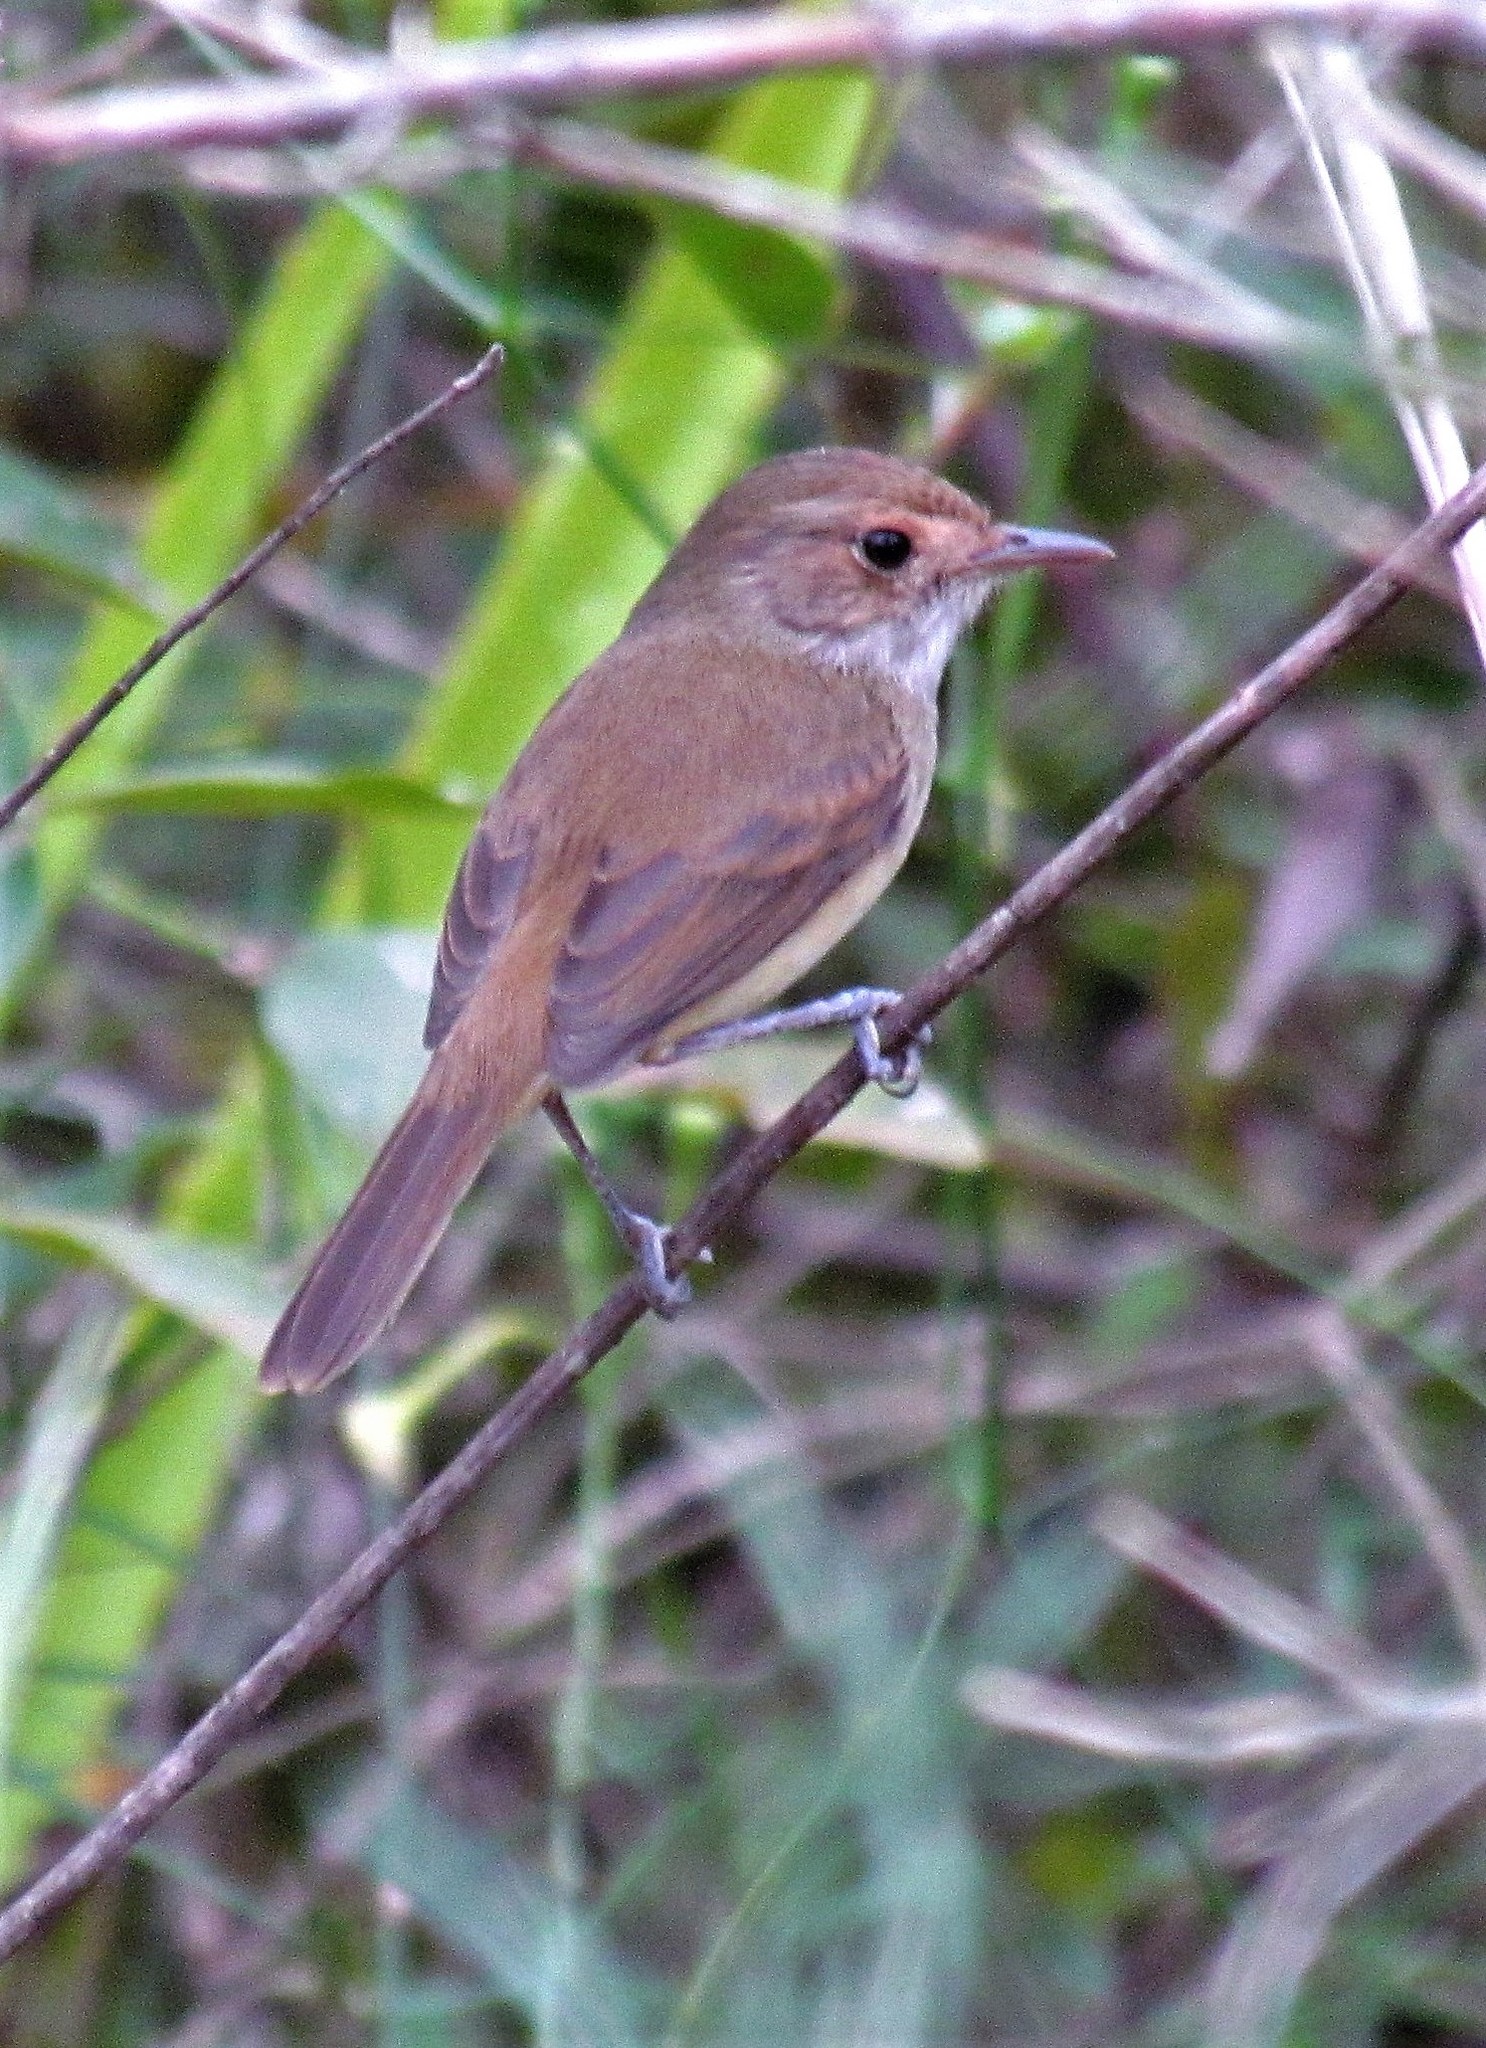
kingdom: Animalia
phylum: Chordata
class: Aves
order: Passeriformes
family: Tyrannidae
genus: Euscarthmus
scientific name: Euscarthmus meloryphus
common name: Tawny-crowned pygmy tyrant
